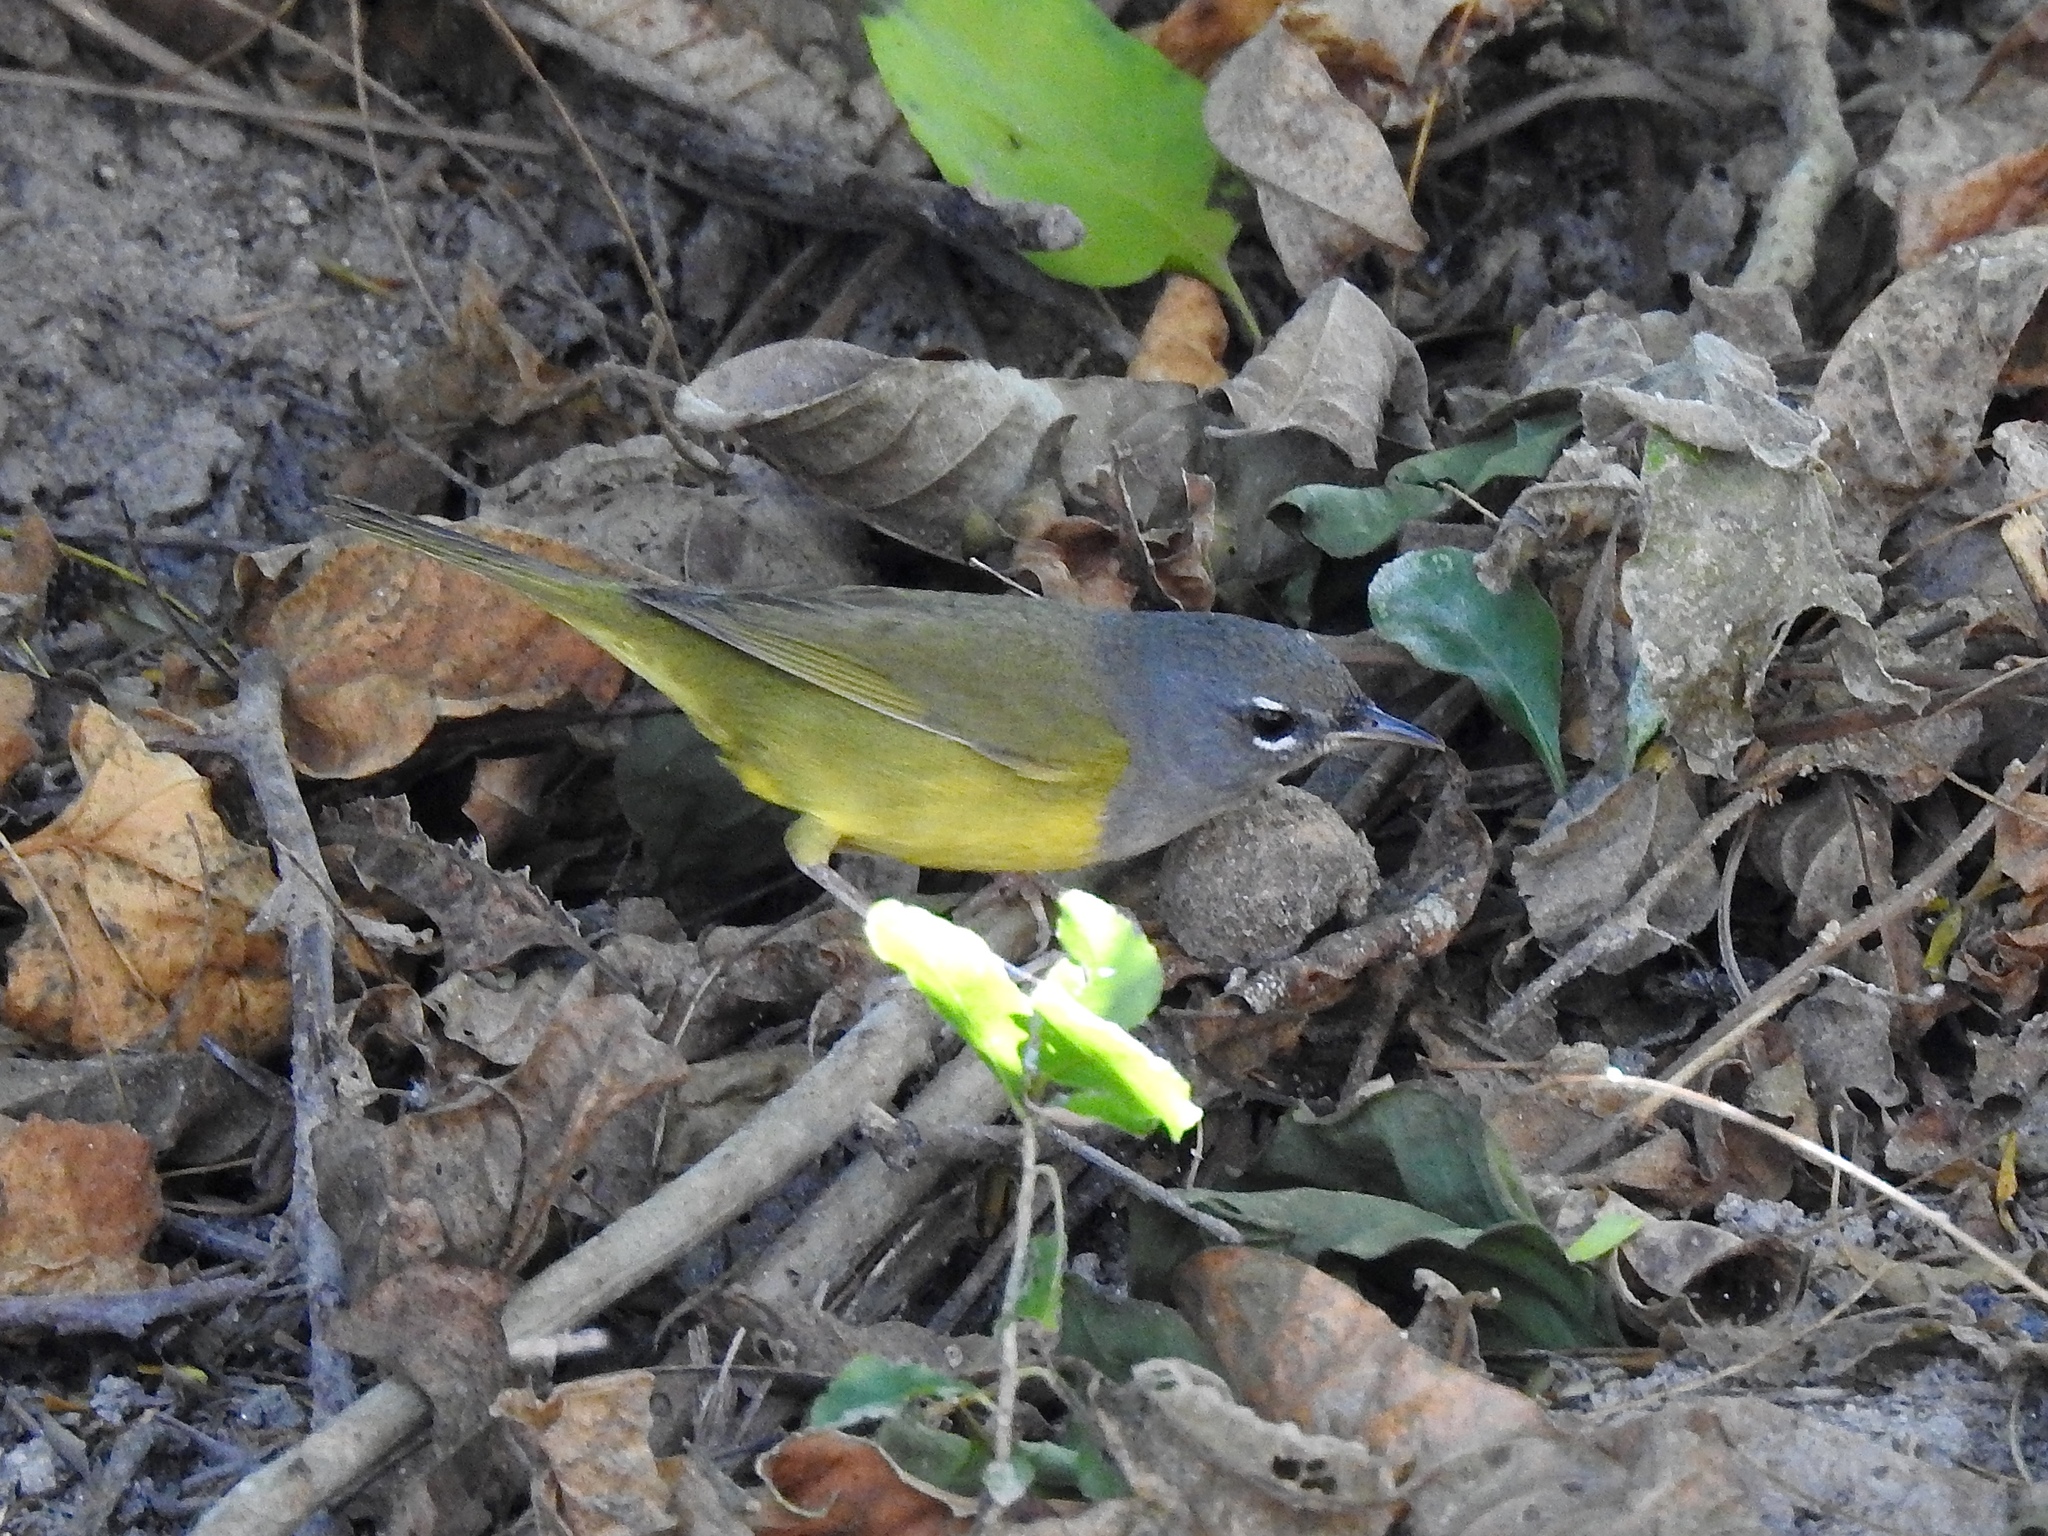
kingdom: Animalia
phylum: Chordata
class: Aves
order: Passeriformes
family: Parulidae
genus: Geothlypis
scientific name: Geothlypis tolmiei
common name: Macgillivray's warbler
